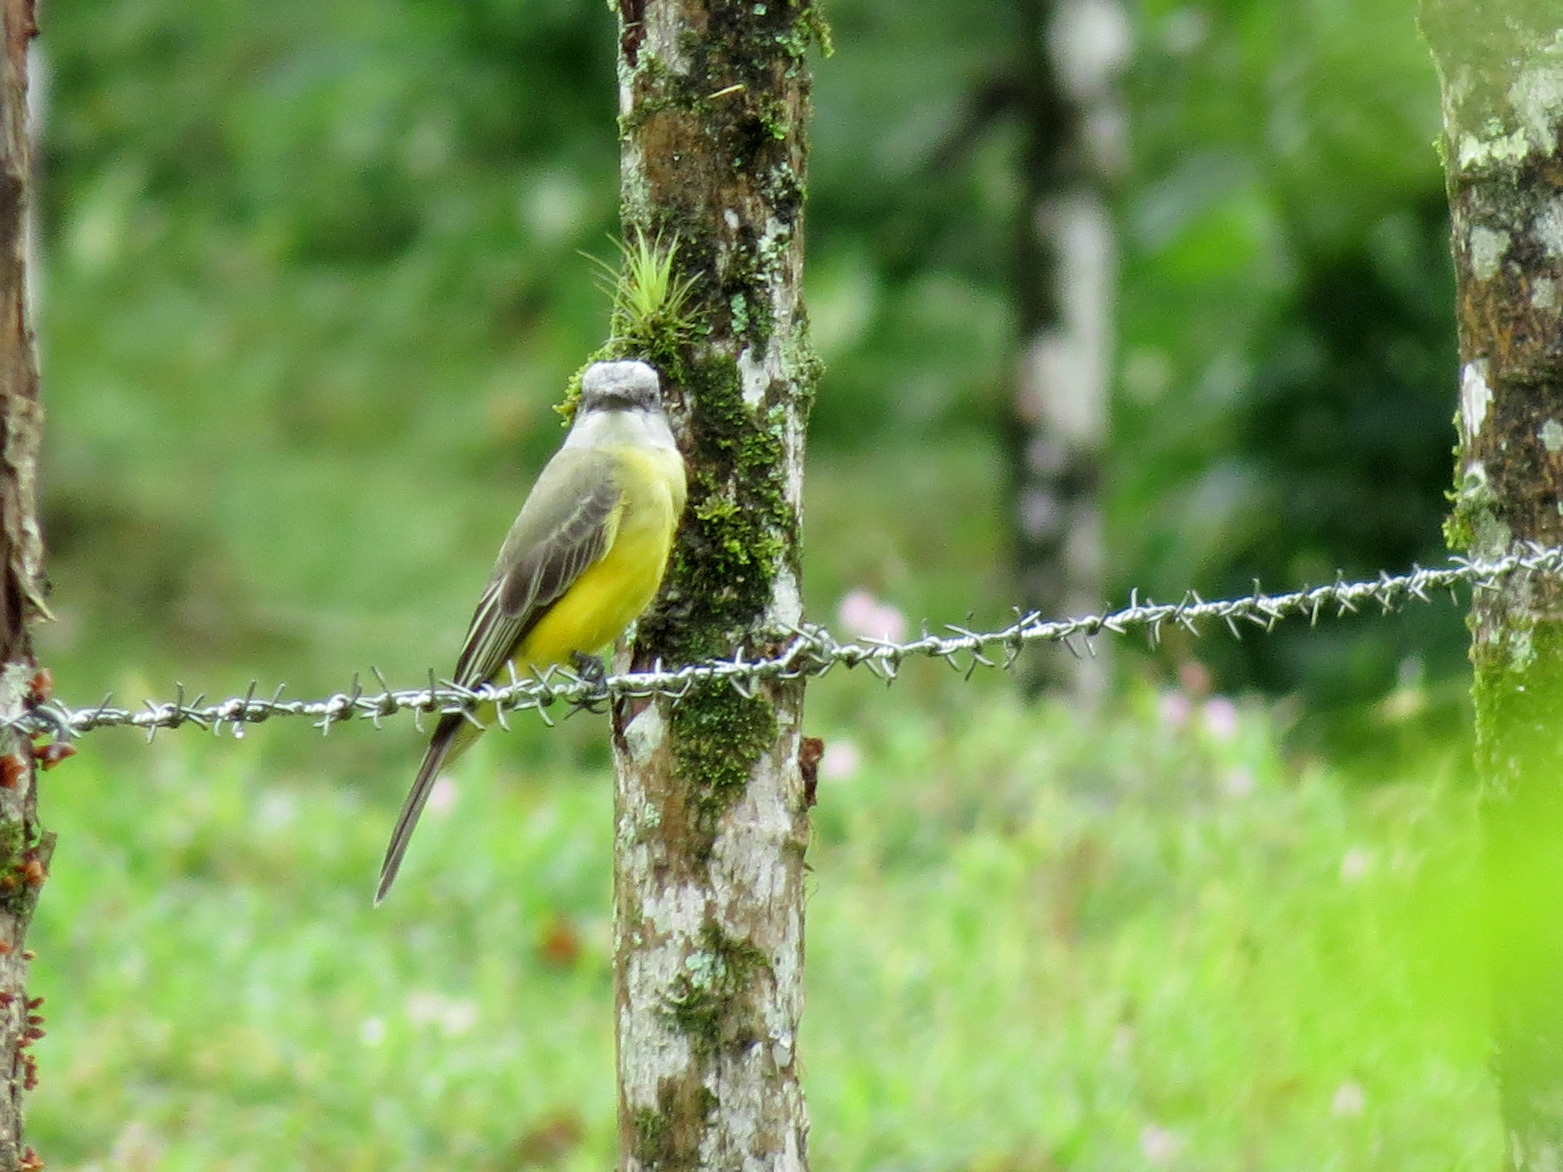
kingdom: Animalia
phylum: Chordata
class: Aves
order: Passeriformes
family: Tyrannidae
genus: Tyrannus
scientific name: Tyrannus melancholicus
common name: Tropical kingbird
